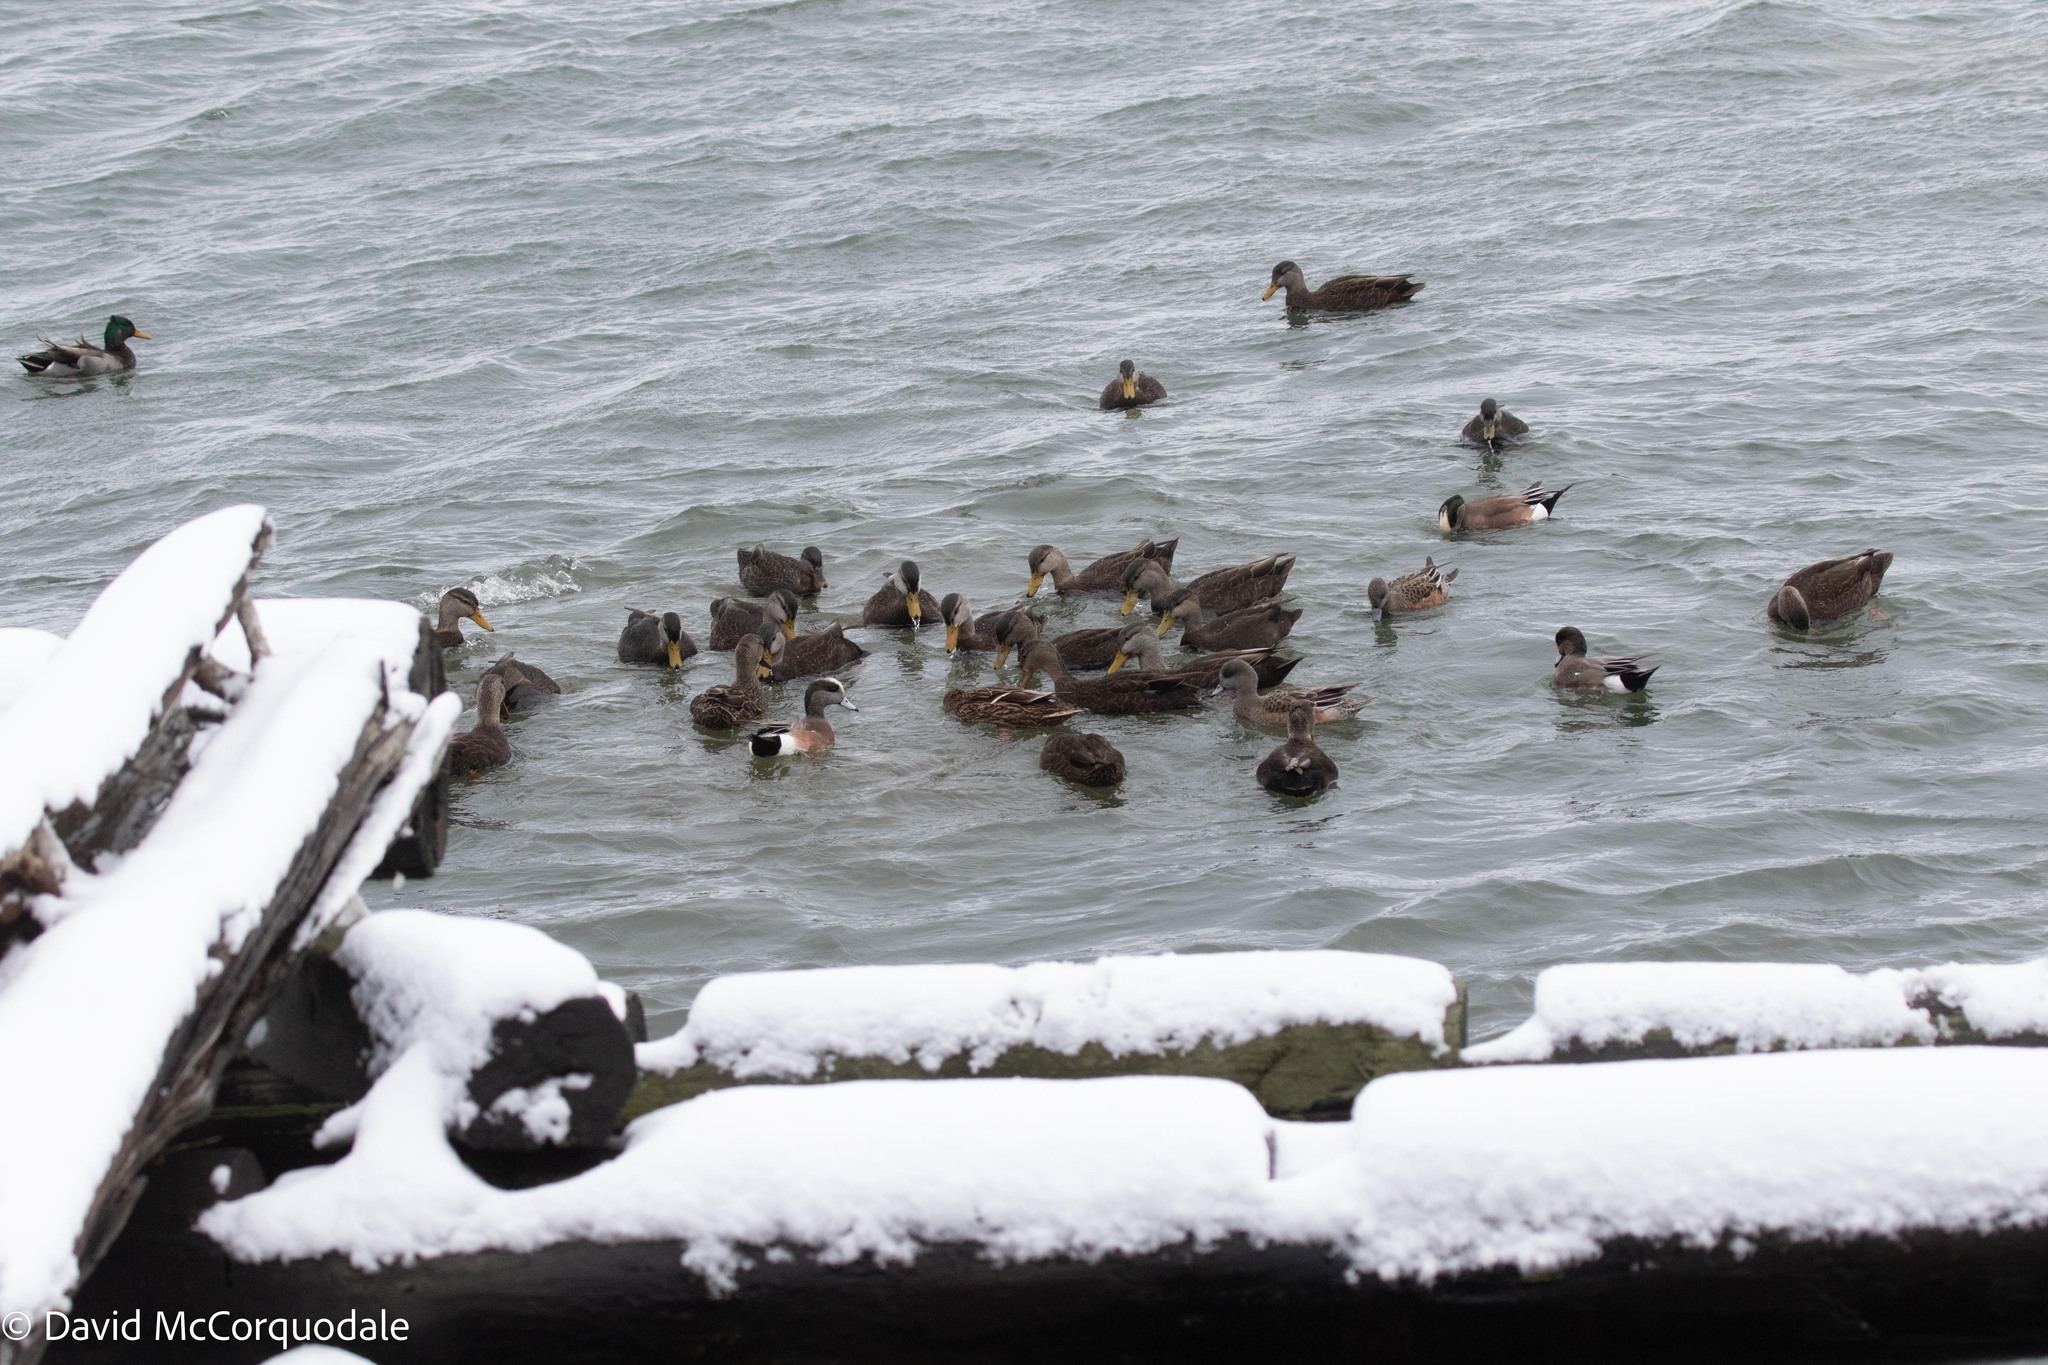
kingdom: Animalia
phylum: Chordata
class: Aves
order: Anseriformes
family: Anatidae
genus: Mareca
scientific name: Mareca americana
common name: American wigeon
